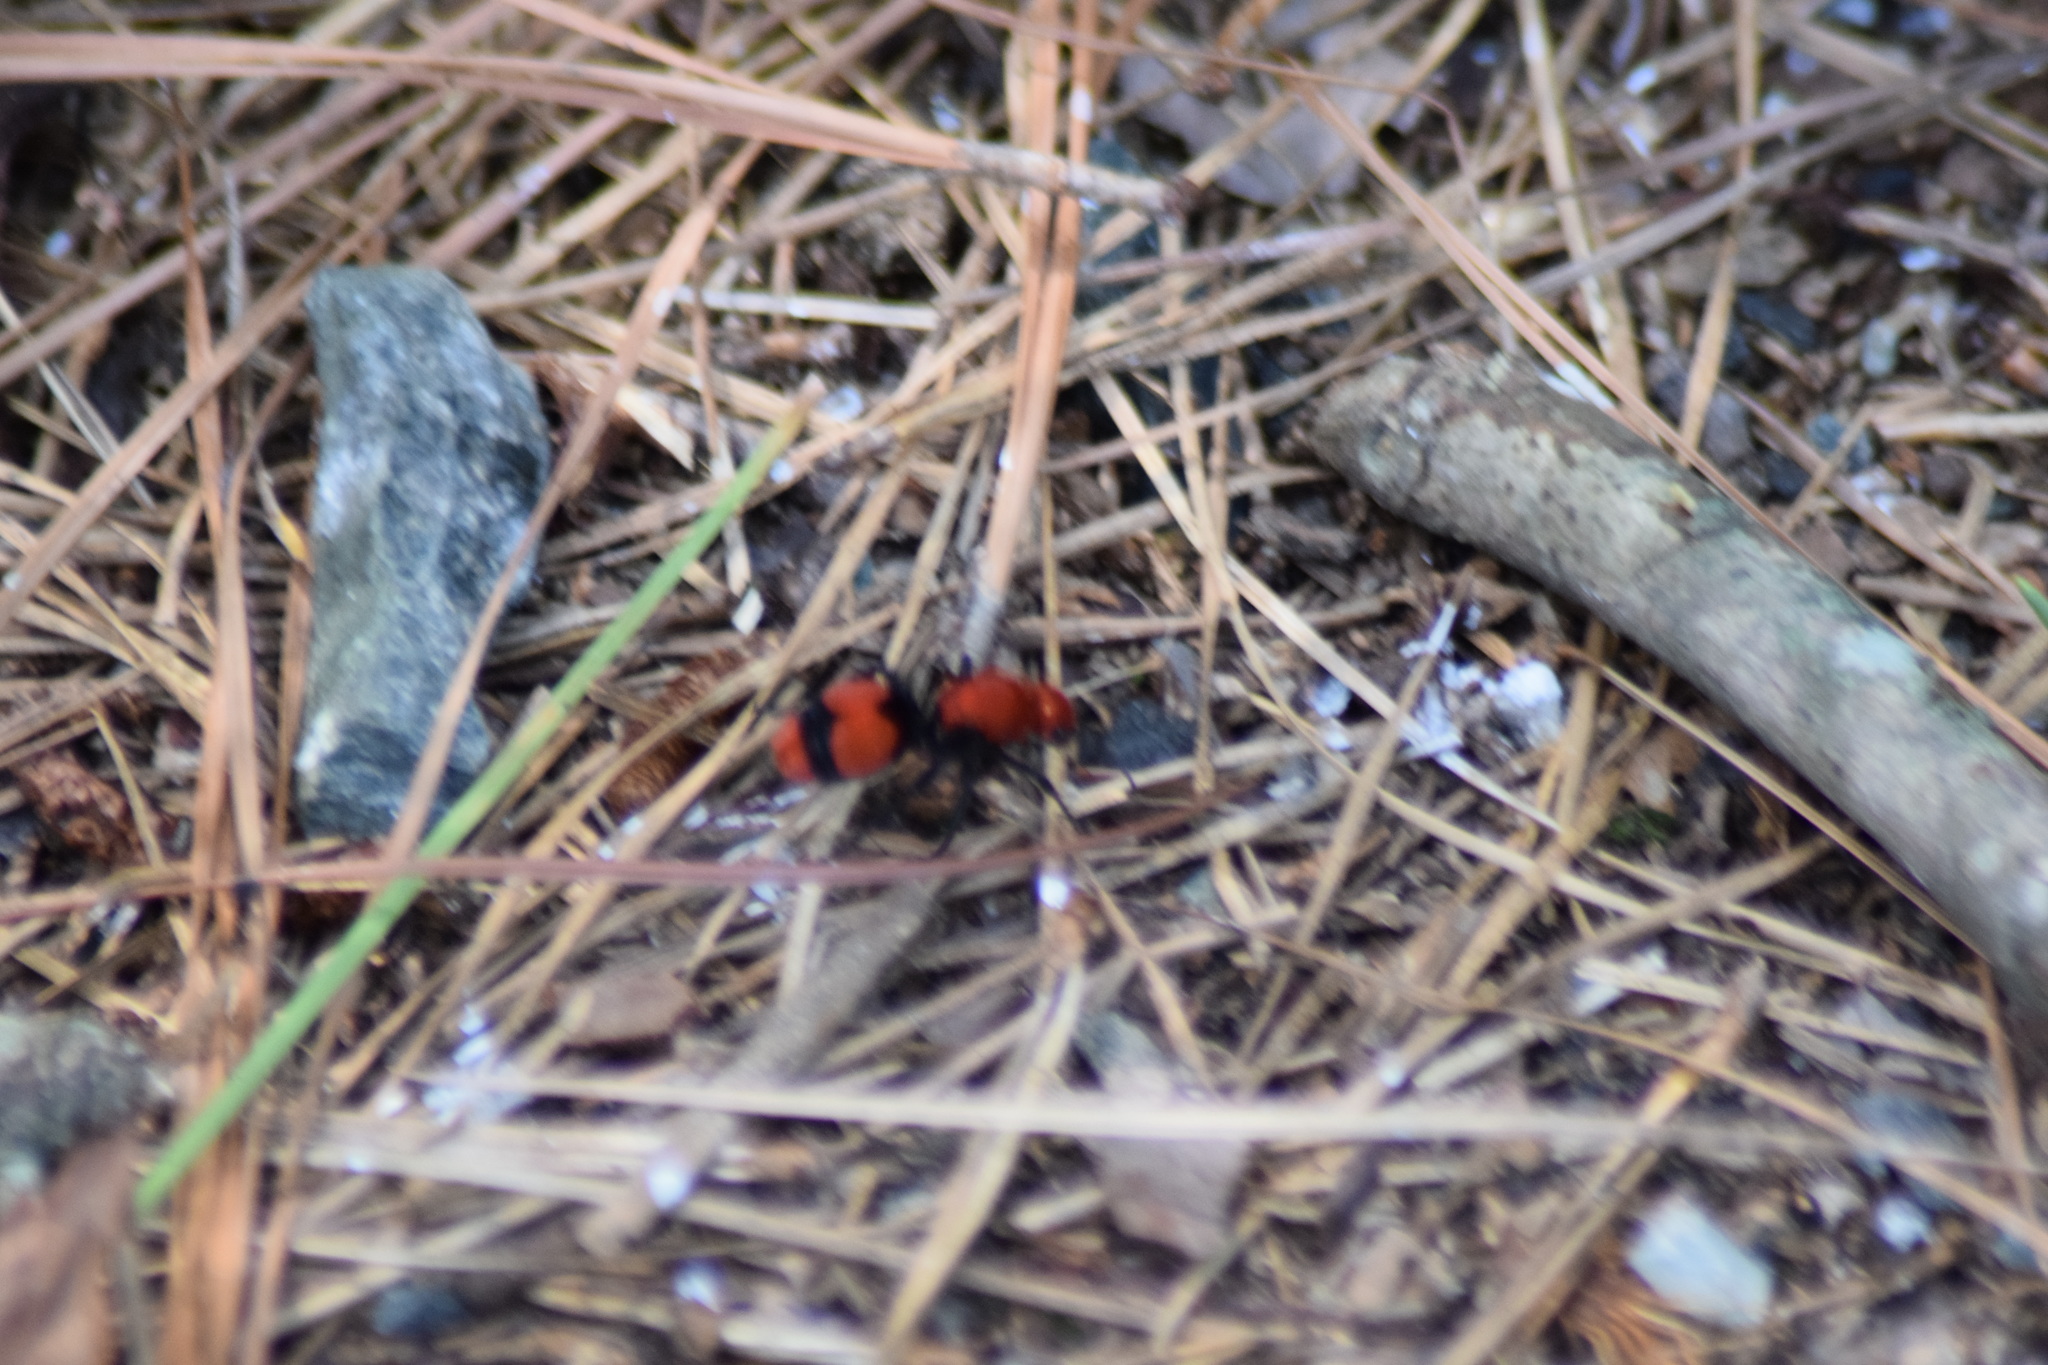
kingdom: Animalia
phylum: Arthropoda
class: Insecta
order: Hymenoptera
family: Mutillidae
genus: Dasymutilla
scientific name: Dasymutilla occidentalis
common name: Common eastern velvet ant
